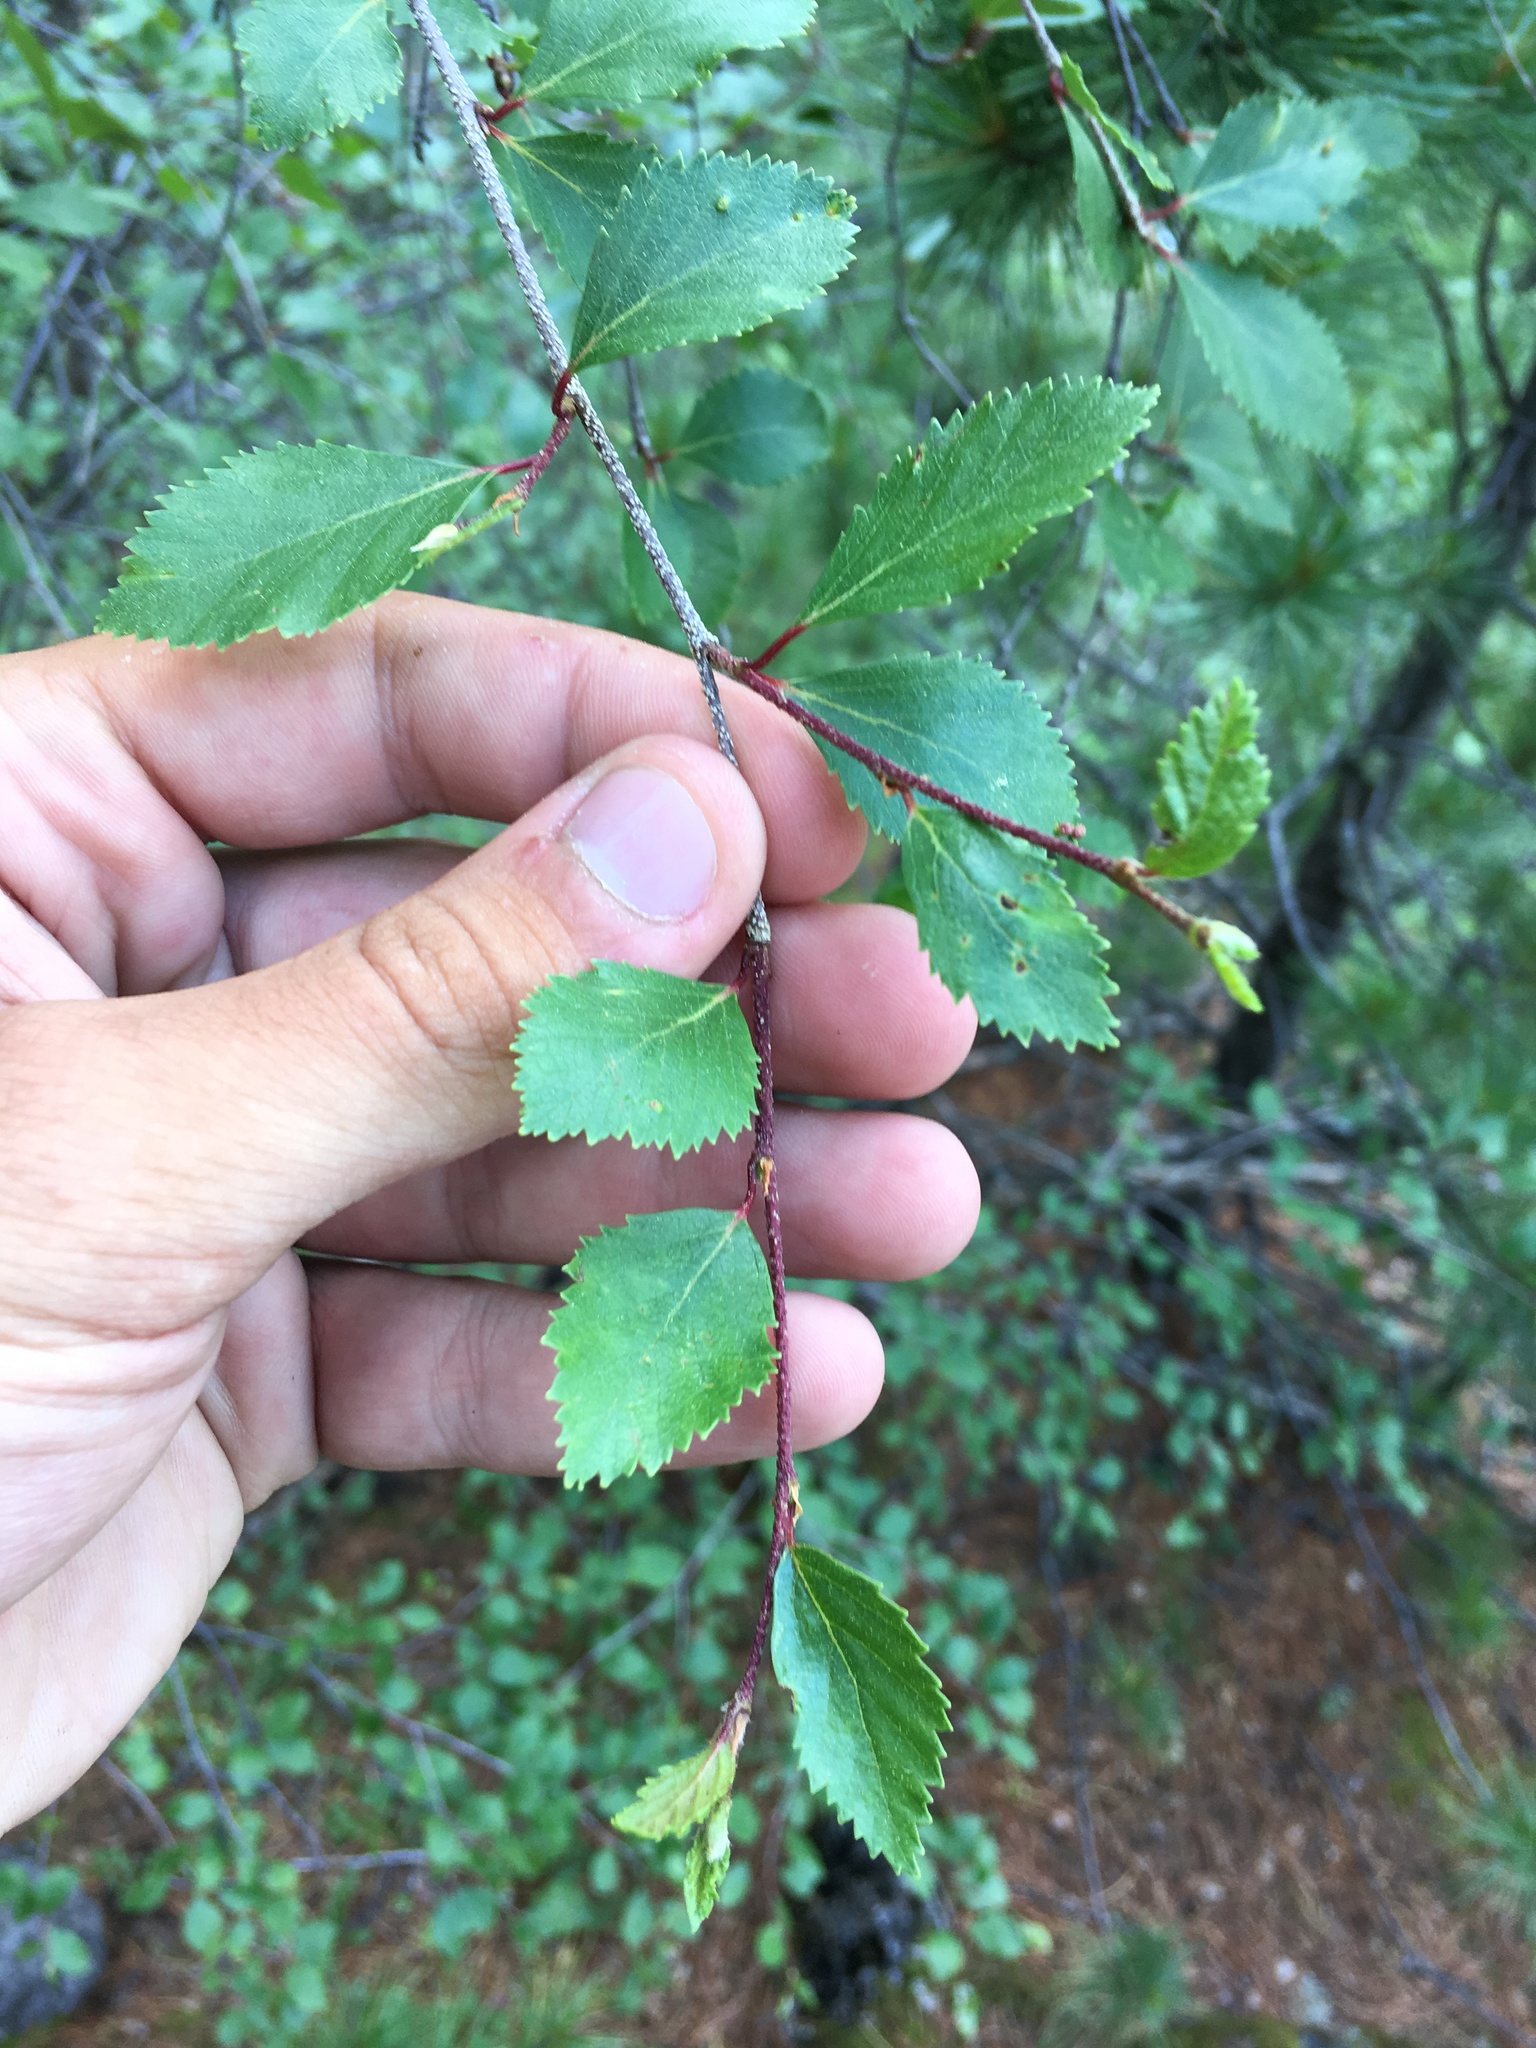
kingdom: Plantae
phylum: Tracheophyta
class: Magnoliopsida
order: Fagales
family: Betulaceae
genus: Betula
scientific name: Betula microphylla
